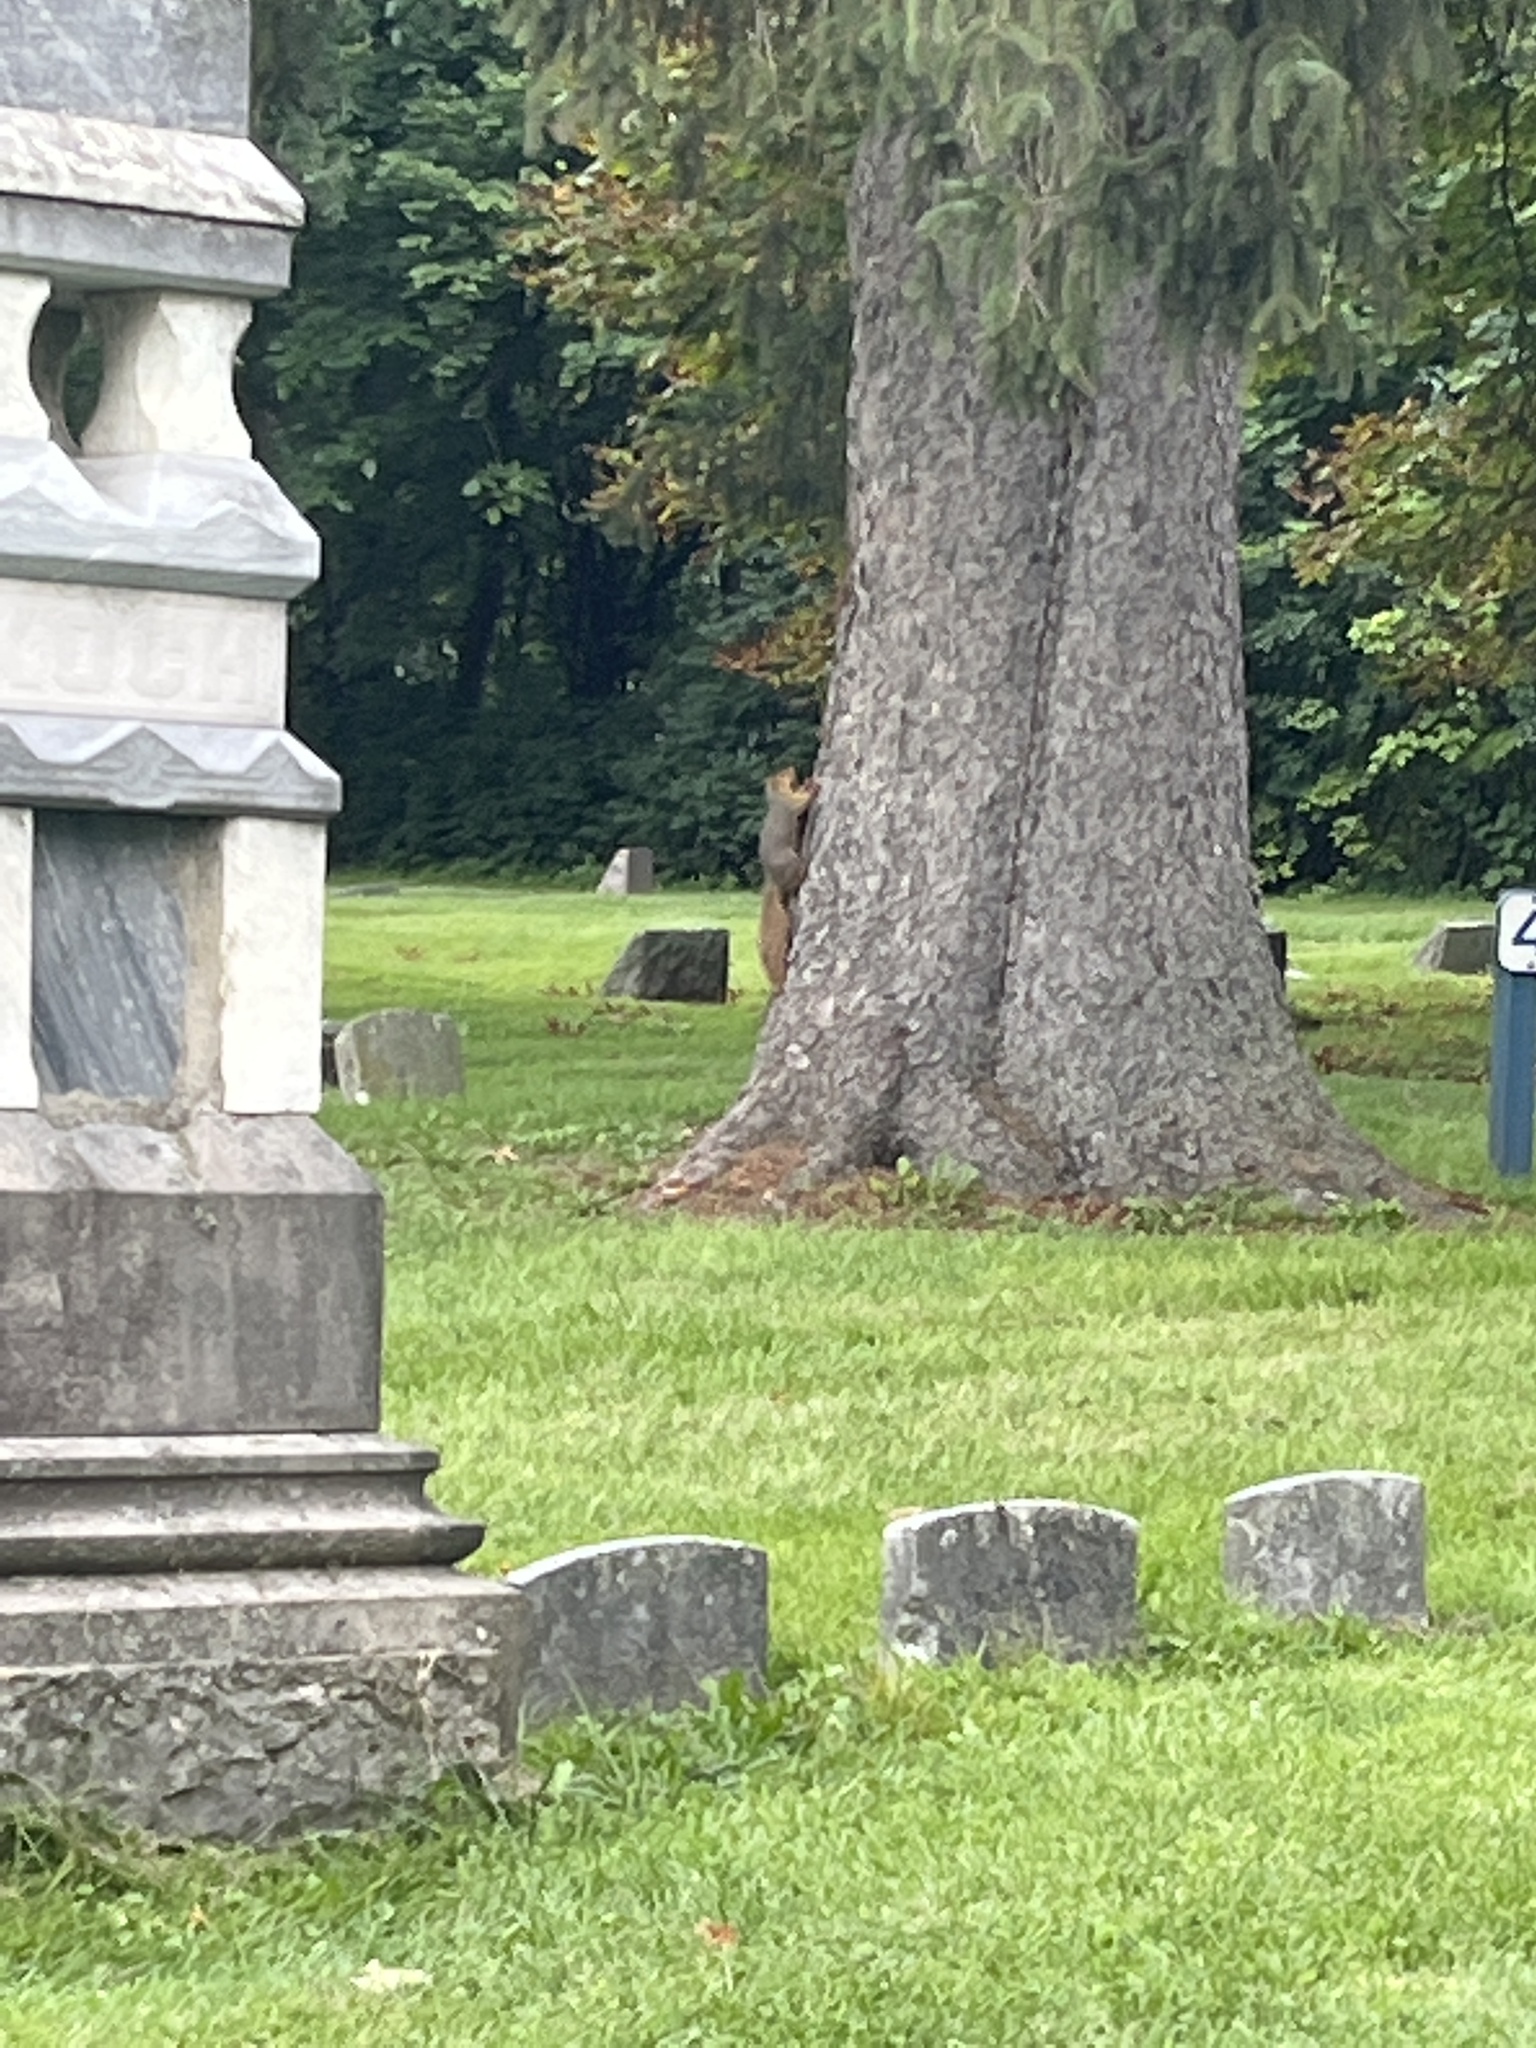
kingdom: Animalia
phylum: Chordata
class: Mammalia
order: Rodentia
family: Sciuridae
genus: Sciurus
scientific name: Sciurus niger
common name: Fox squirrel
